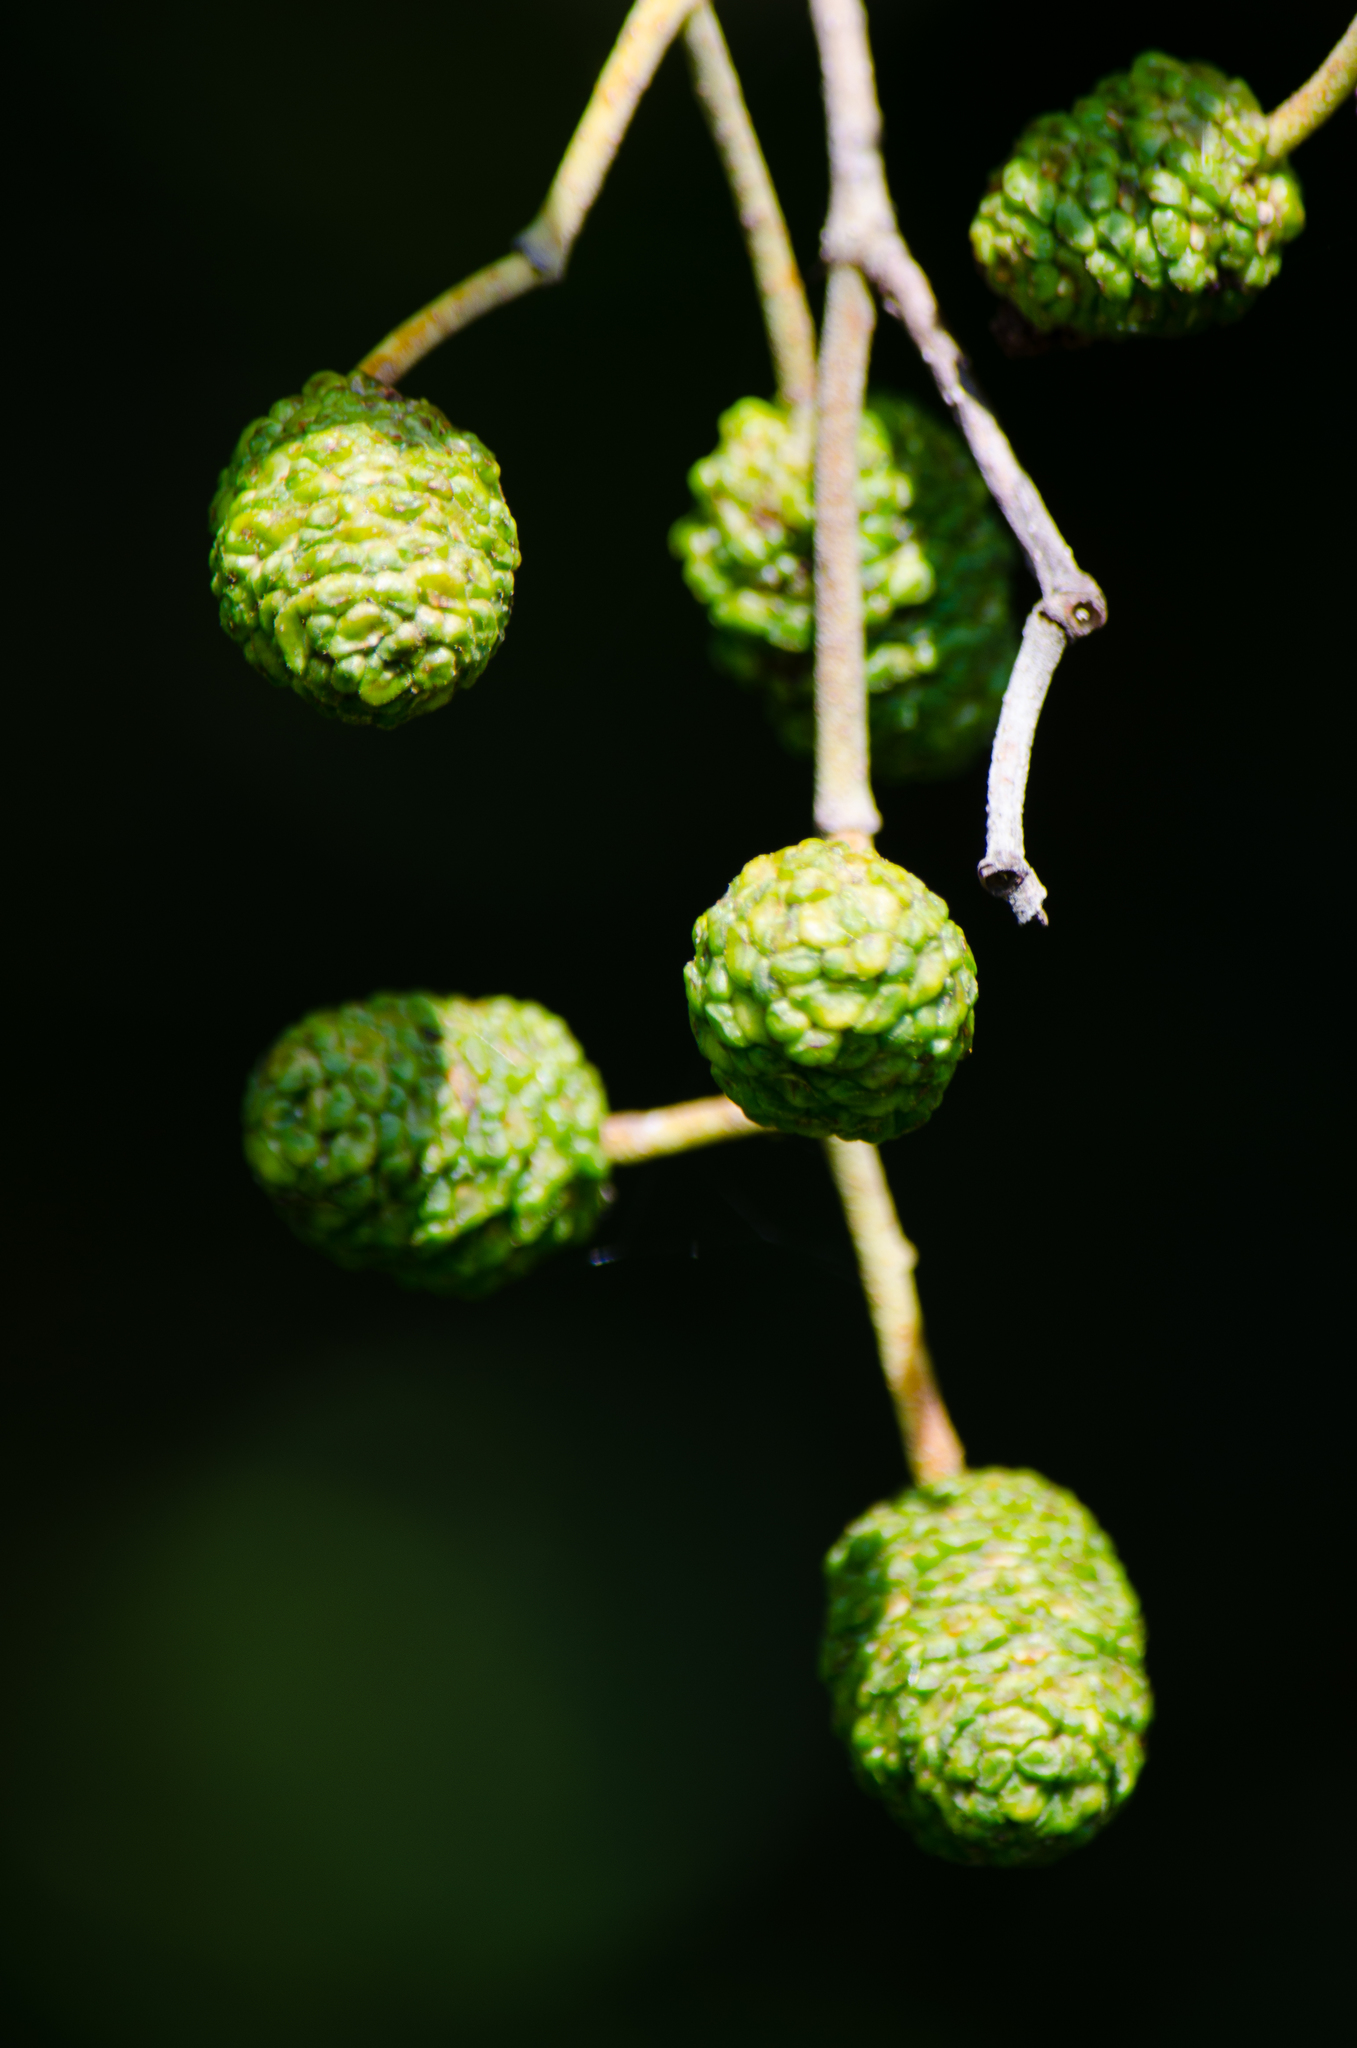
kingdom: Plantae
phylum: Tracheophyta
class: Magnoliopsida
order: Fagales
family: Betulaceae
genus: Alnus
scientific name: Alnus glutinosa
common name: Black alder
